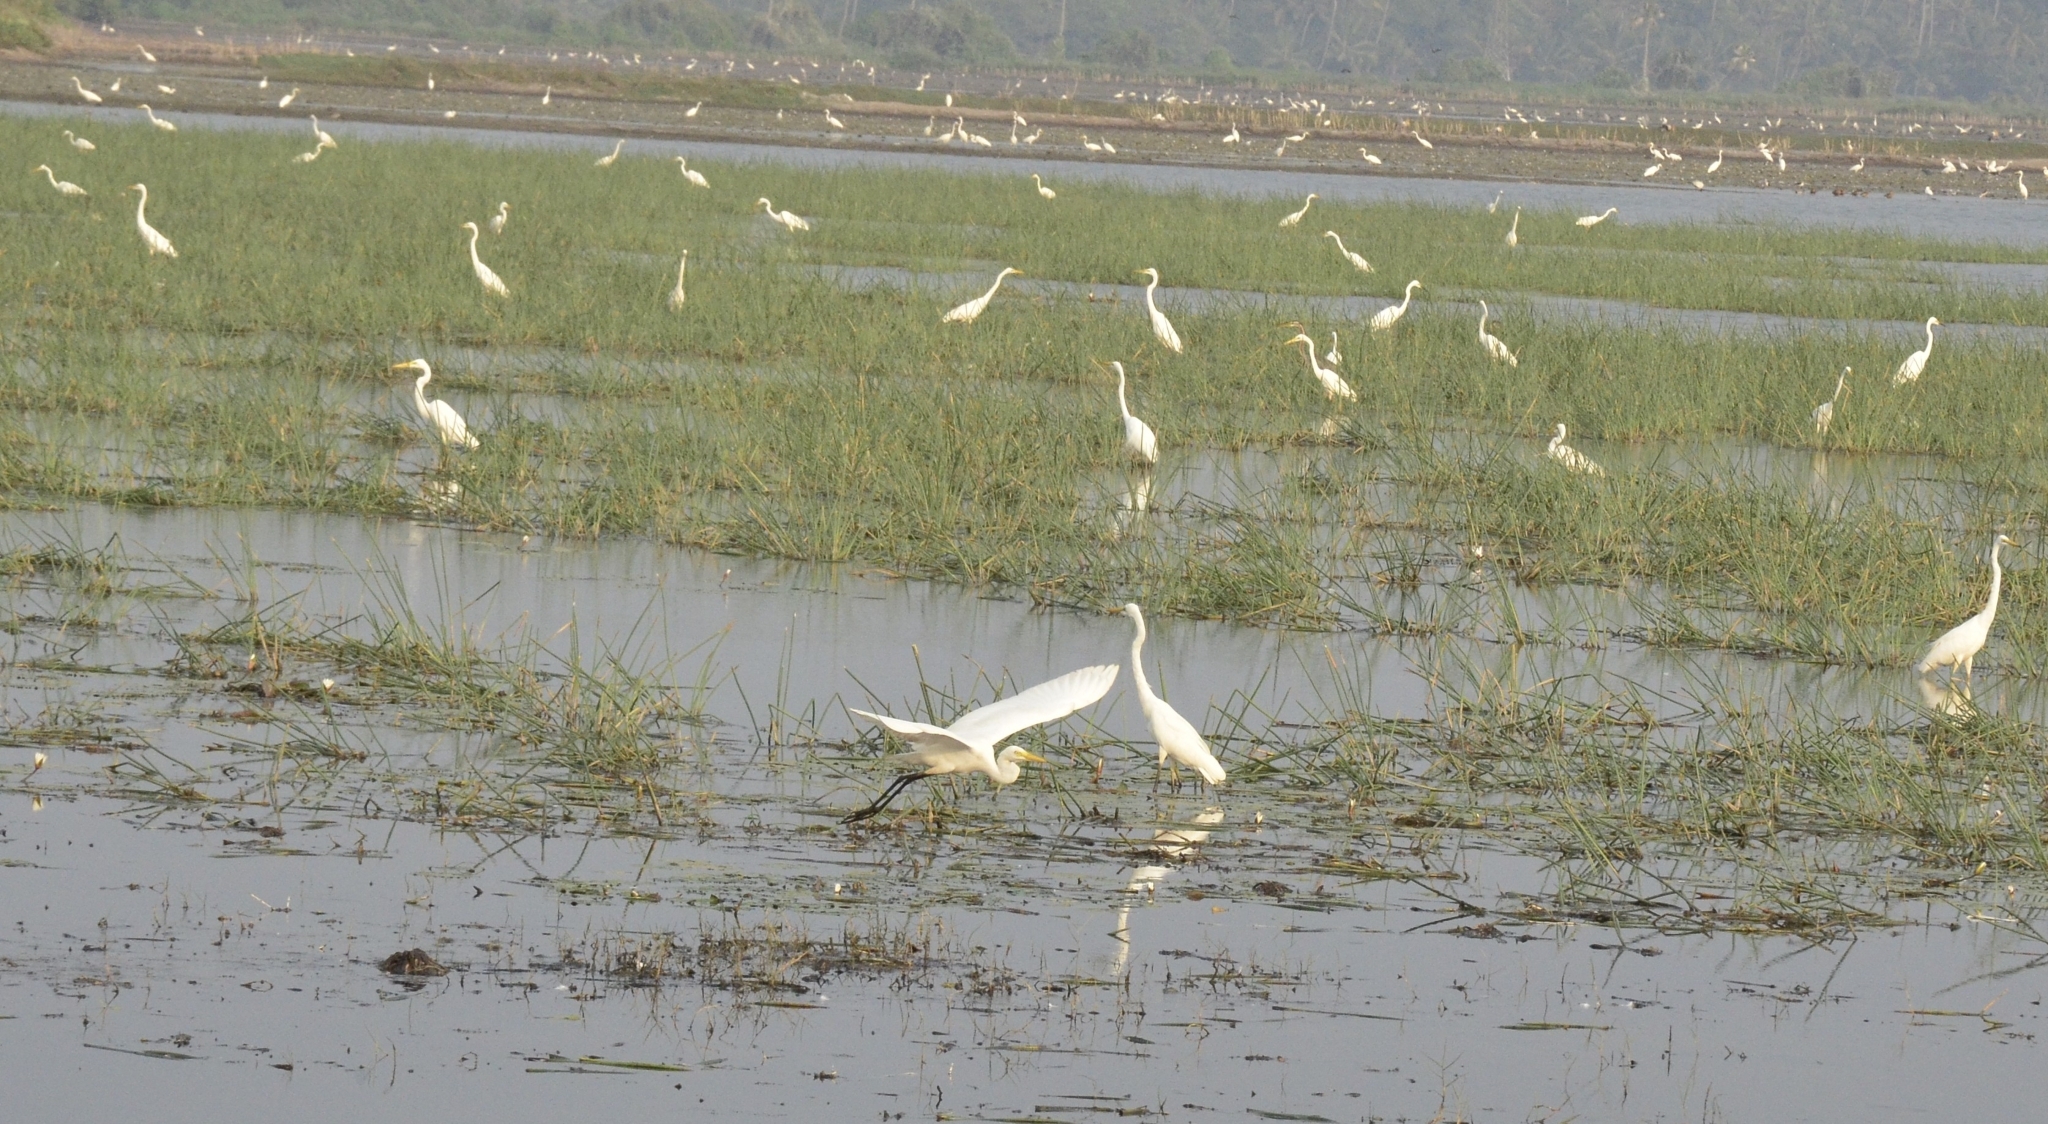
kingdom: Animalia
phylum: Chordata
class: Aves
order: Pelecaniformes
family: Ardeidae
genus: Egretta
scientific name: Egretta intermedia
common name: Intermediate egret
